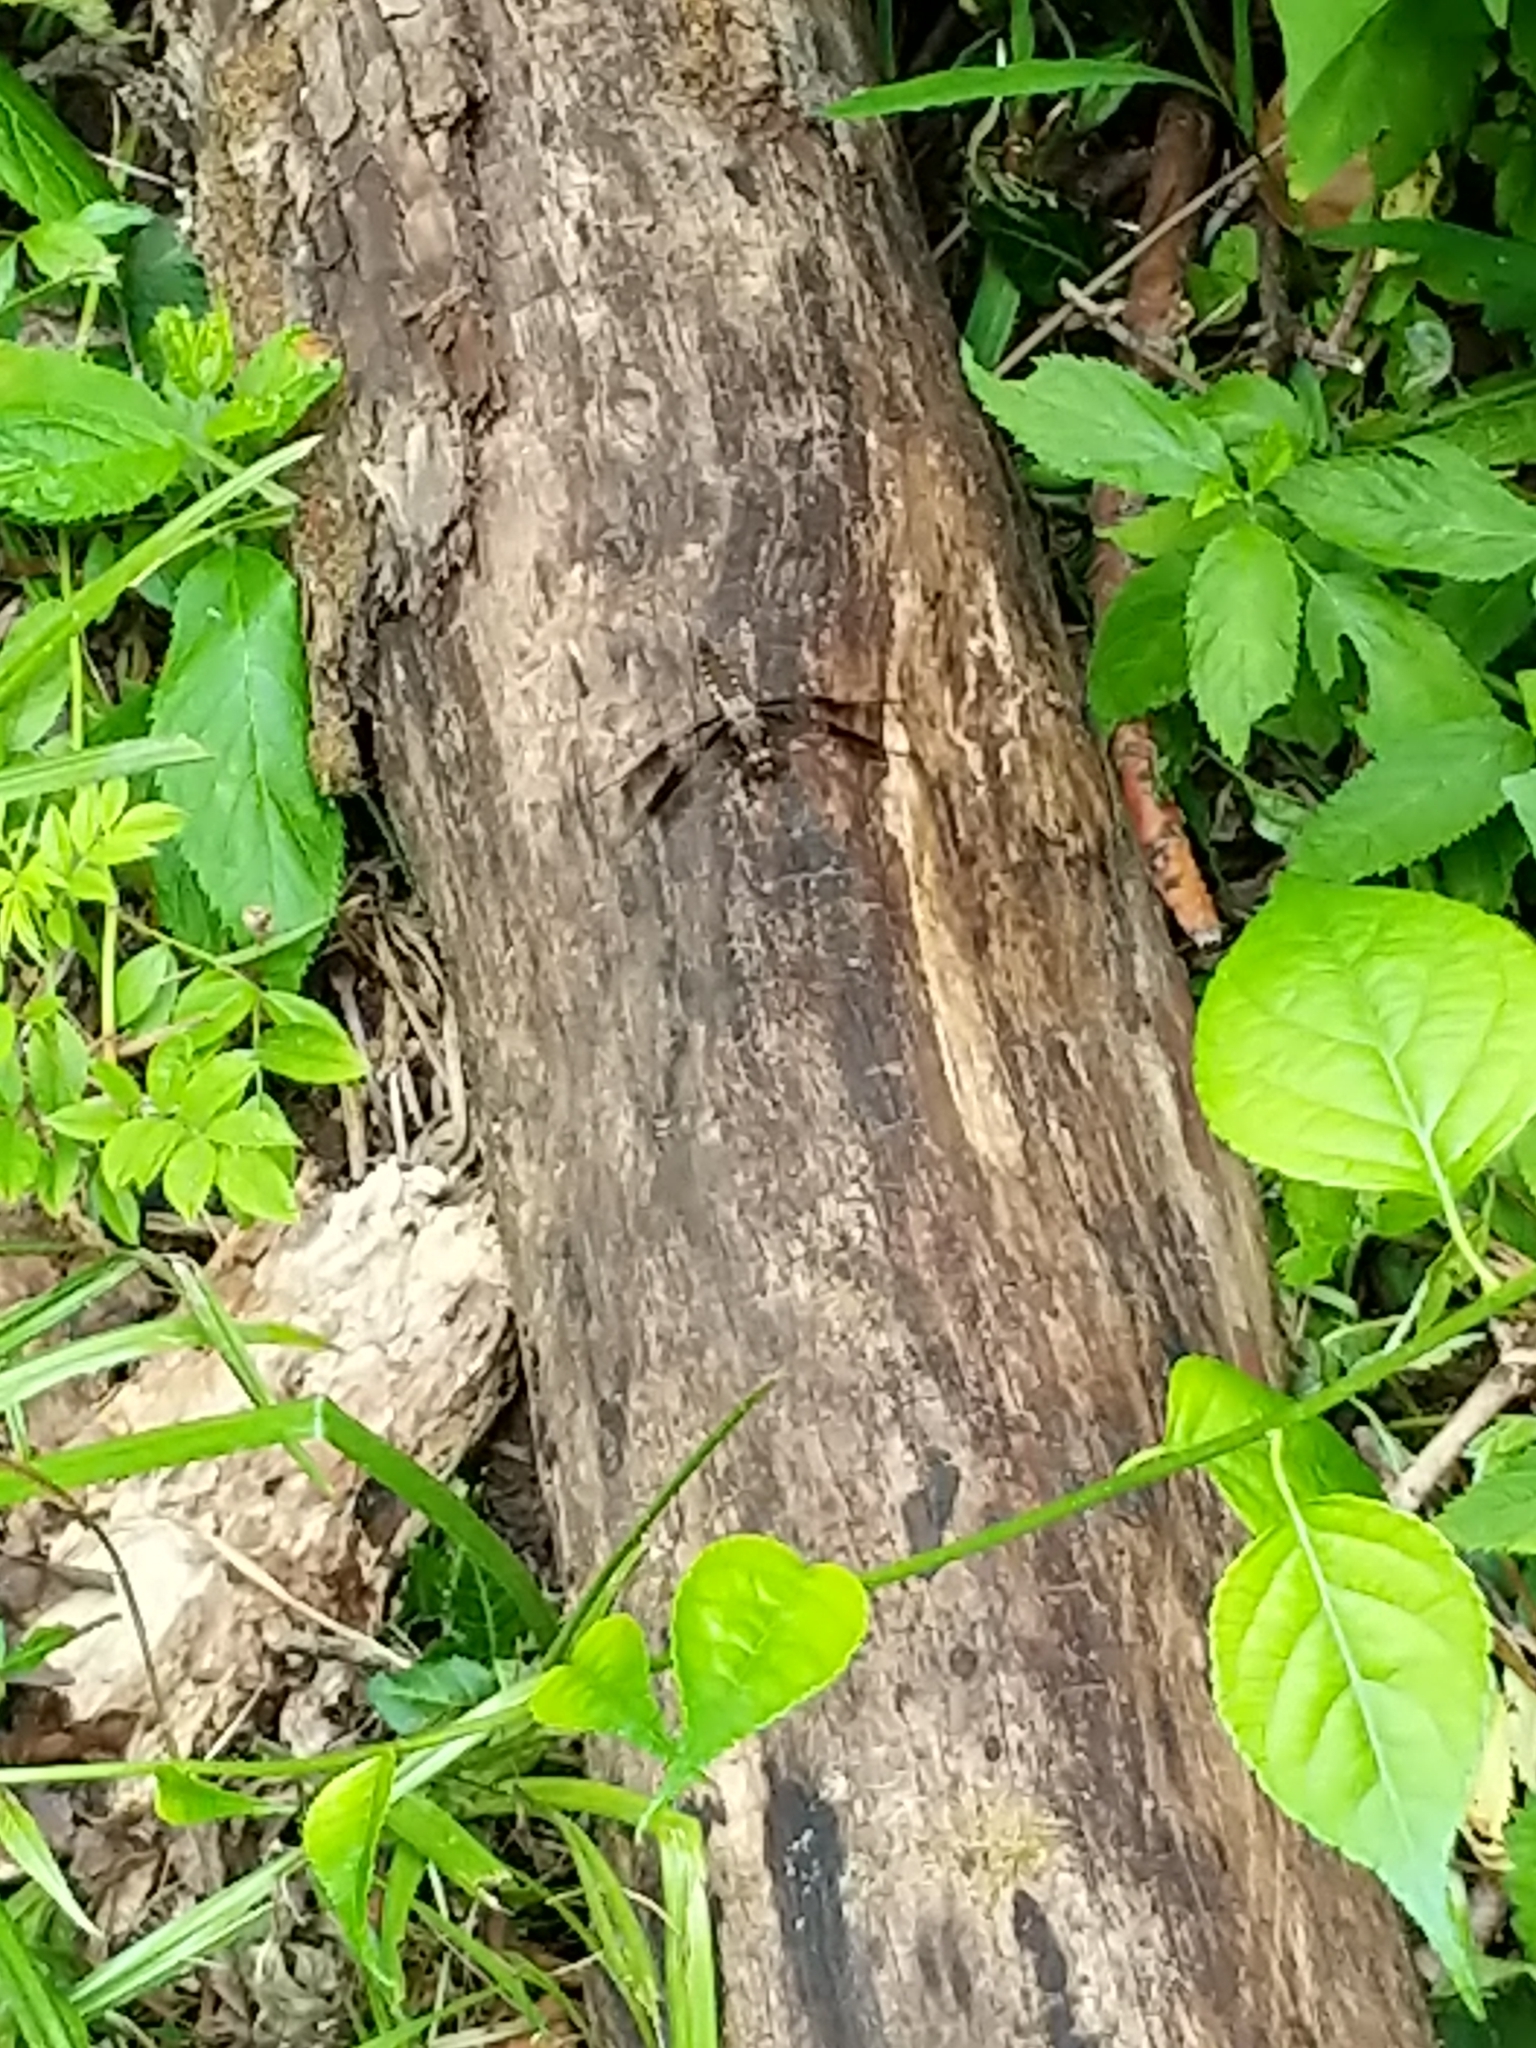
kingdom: Animalia
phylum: Arthropoda
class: Insecta
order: Odonata
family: Libellulidae
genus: Plathemis
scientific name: Plathemis lydia
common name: Common whitetail
